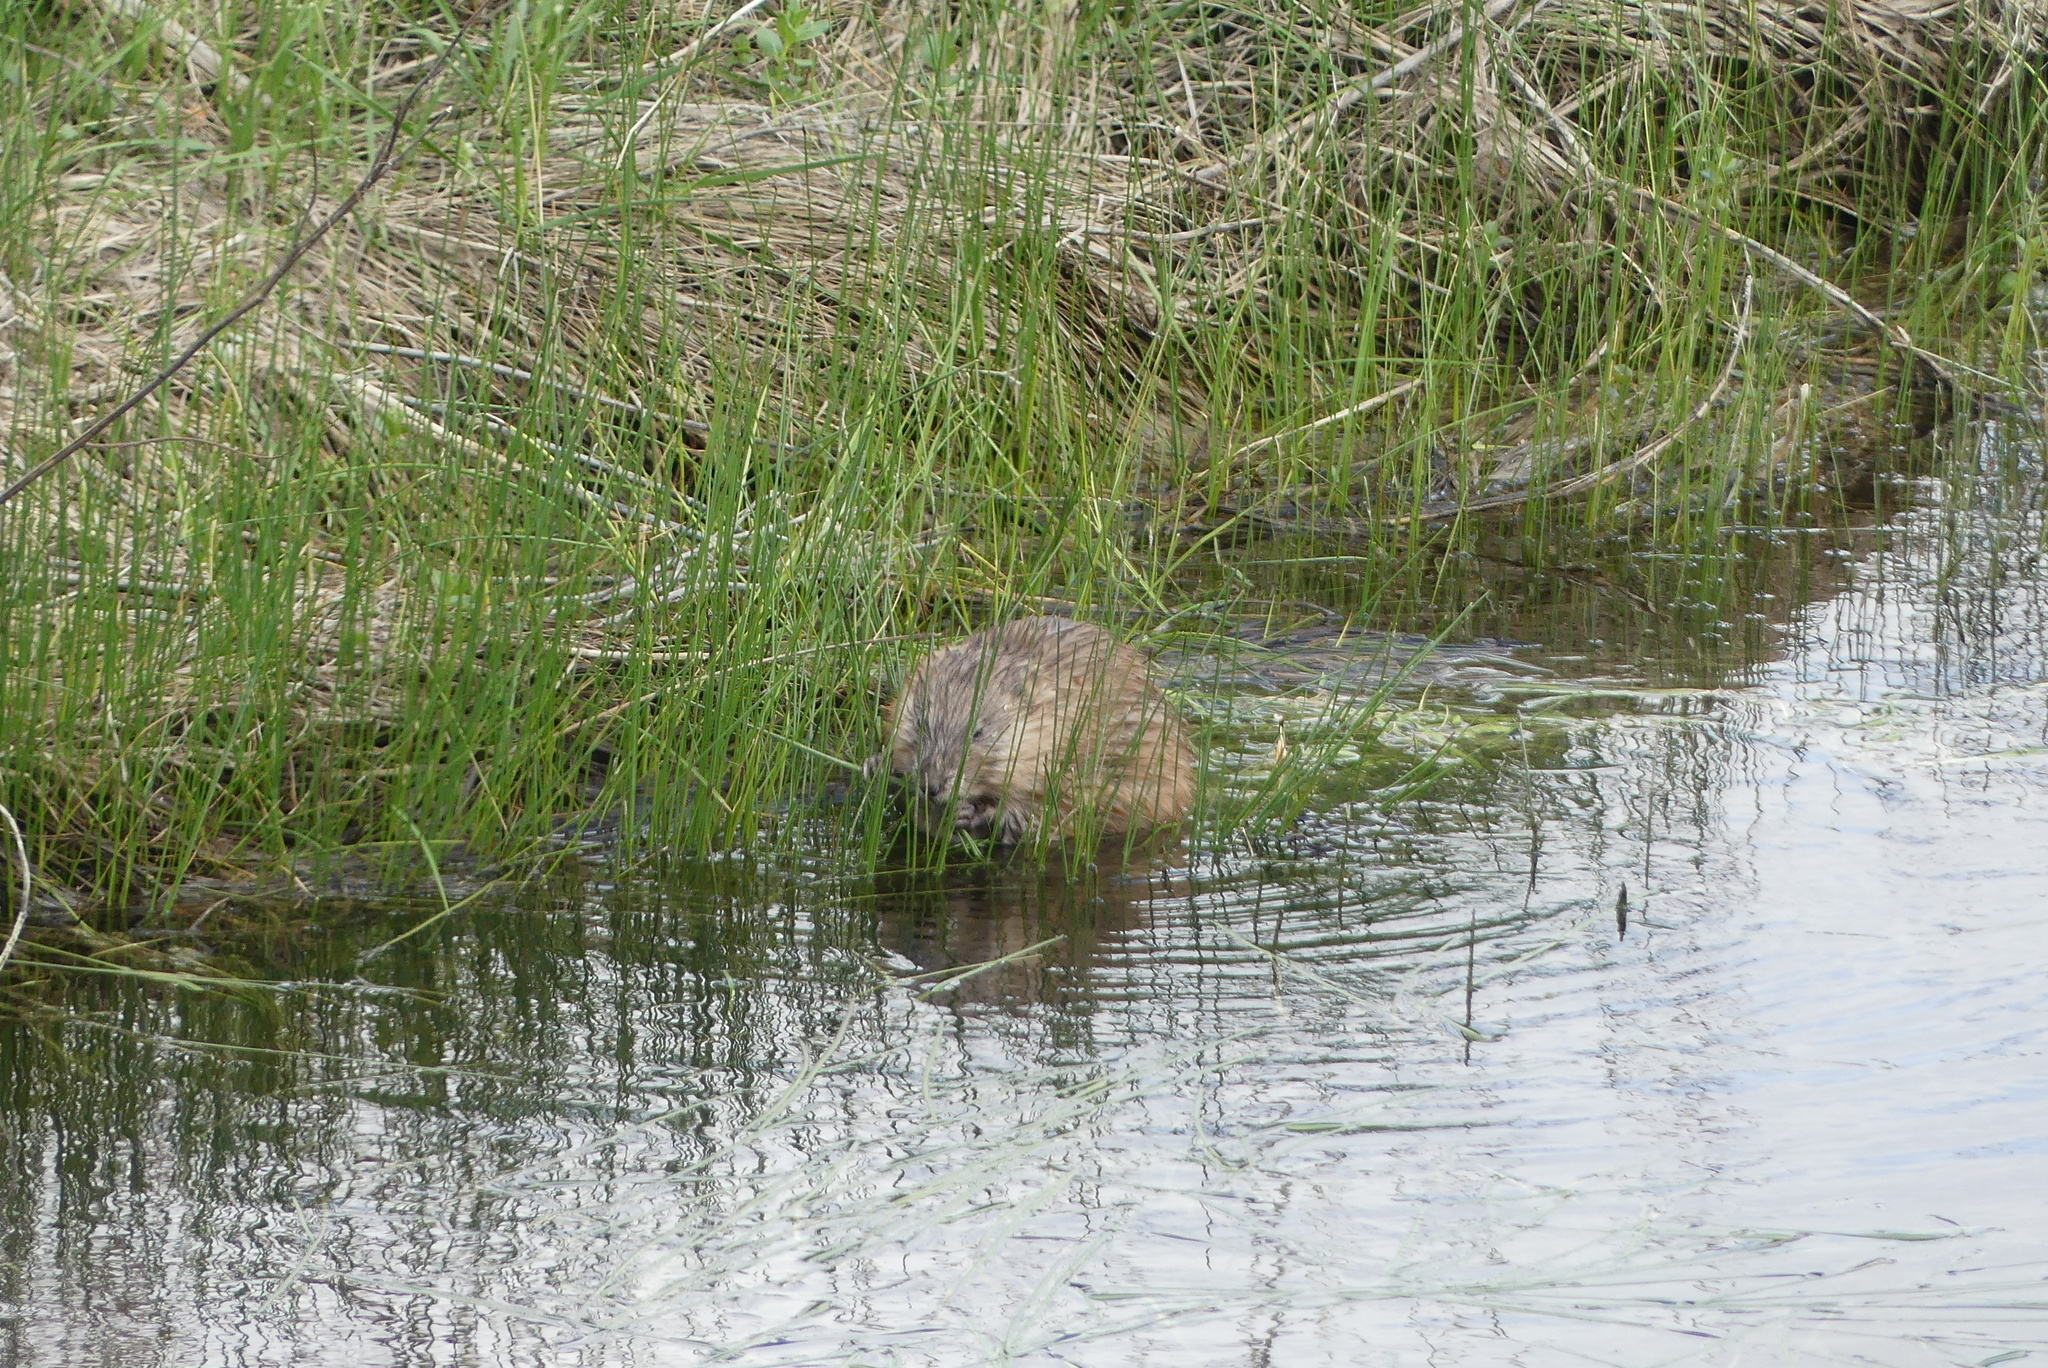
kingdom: Animalia
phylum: Chordata
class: Mammalia
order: Rodentia
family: Cricetidae
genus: Ondatra
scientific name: Ondatra zibethicus
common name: Muskrat
